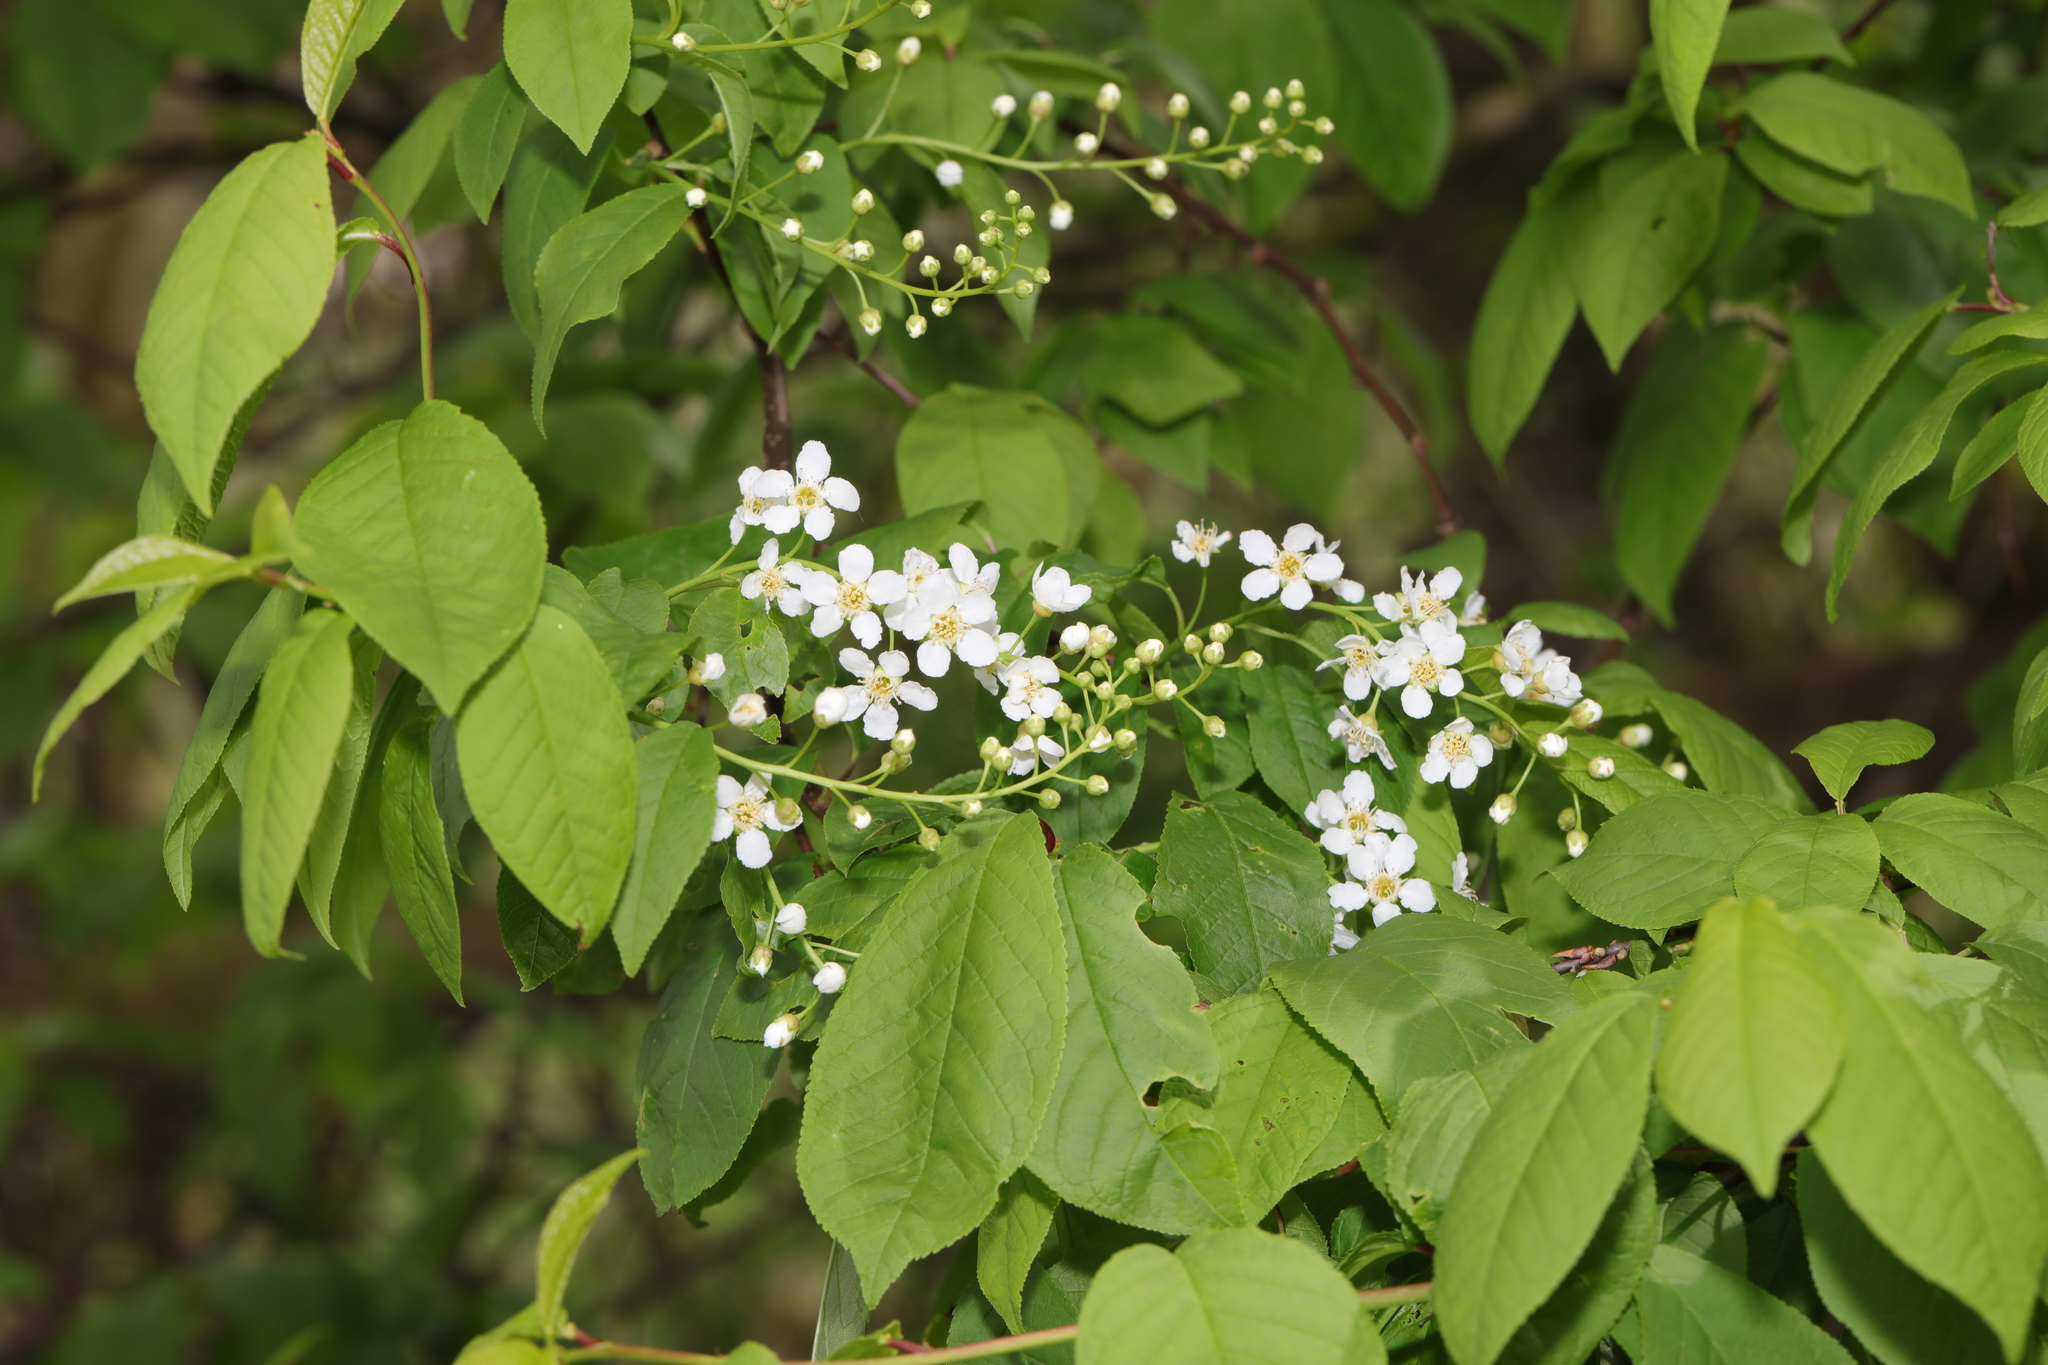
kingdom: Plantae
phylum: Tracheophyta
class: Magnoliopsida
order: Rosales
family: Rosaceae
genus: Prunus
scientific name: Prunus padus
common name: Bird cherry
